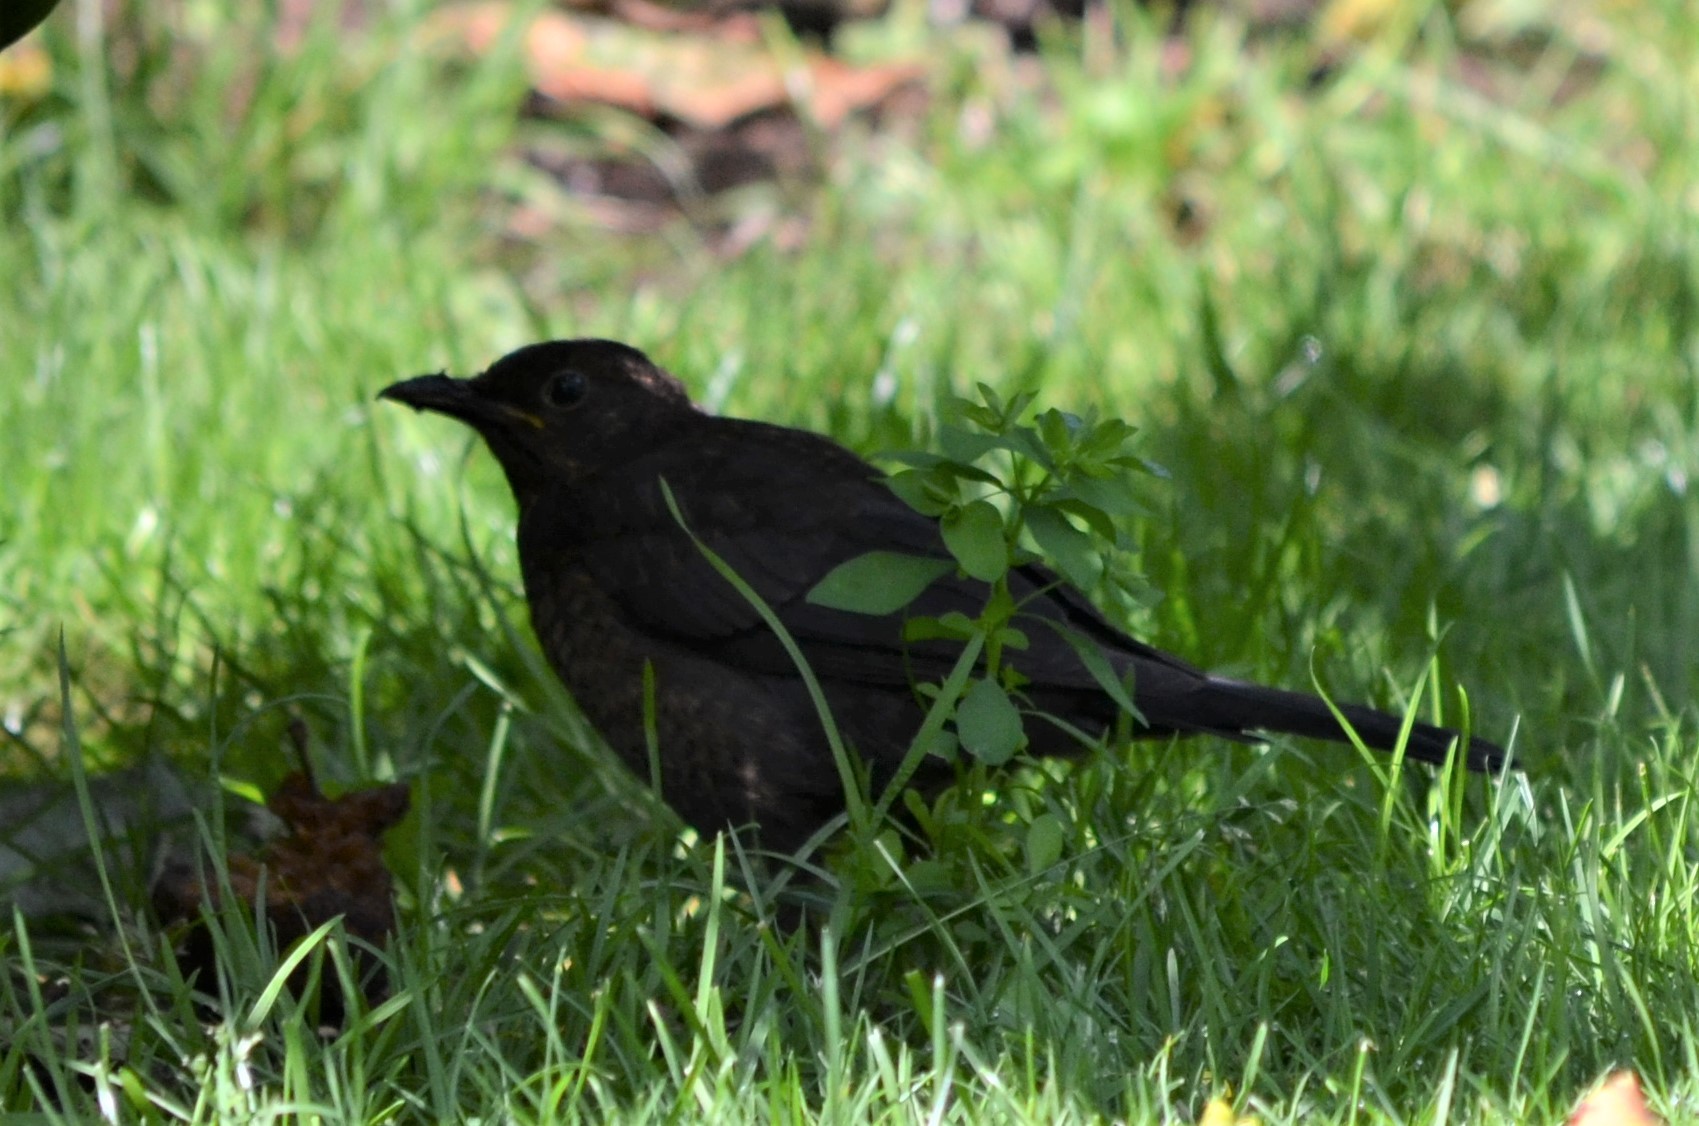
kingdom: Animalia
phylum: Chordata
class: Aves
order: Passeriformes
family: Turdidae
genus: Turdus
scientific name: Turdus merula
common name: Common blackbird
